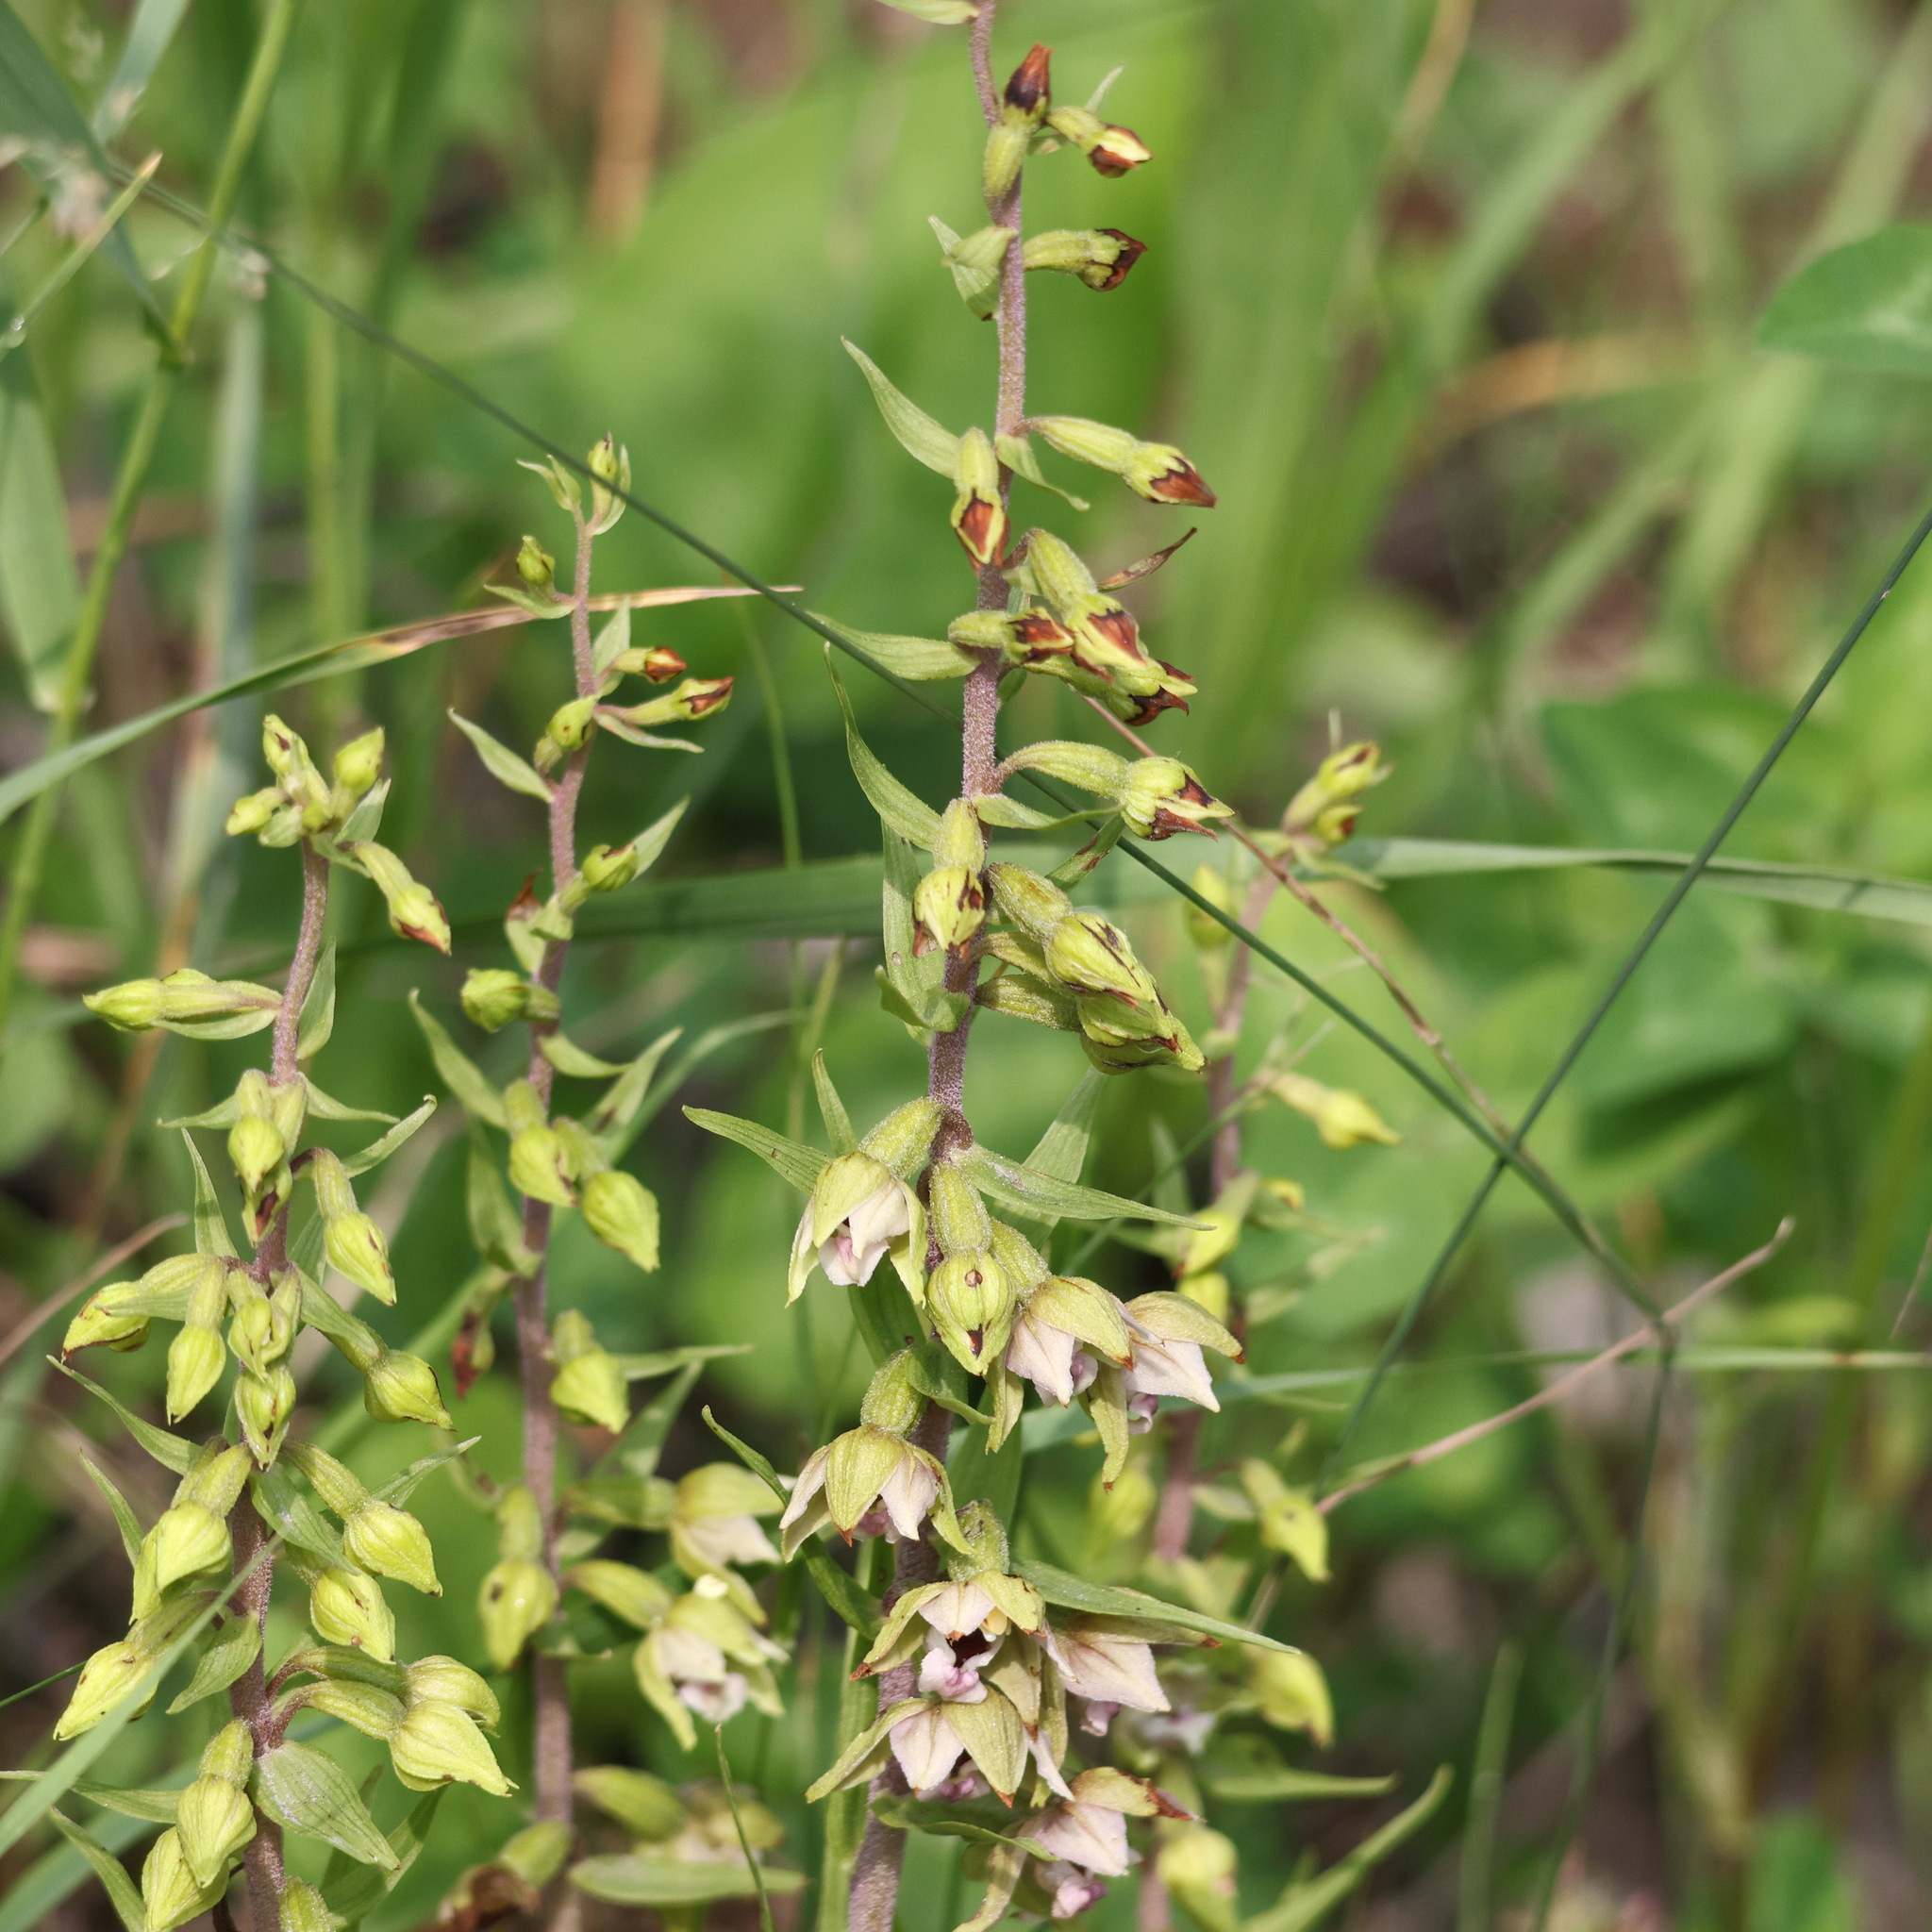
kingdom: Plantae
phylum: Tracheophyta
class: Liliopsida
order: Asparagales
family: Orchidaceae
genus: Epipactis
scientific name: Epipactis helleborine
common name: Broad-leaved helleborine
